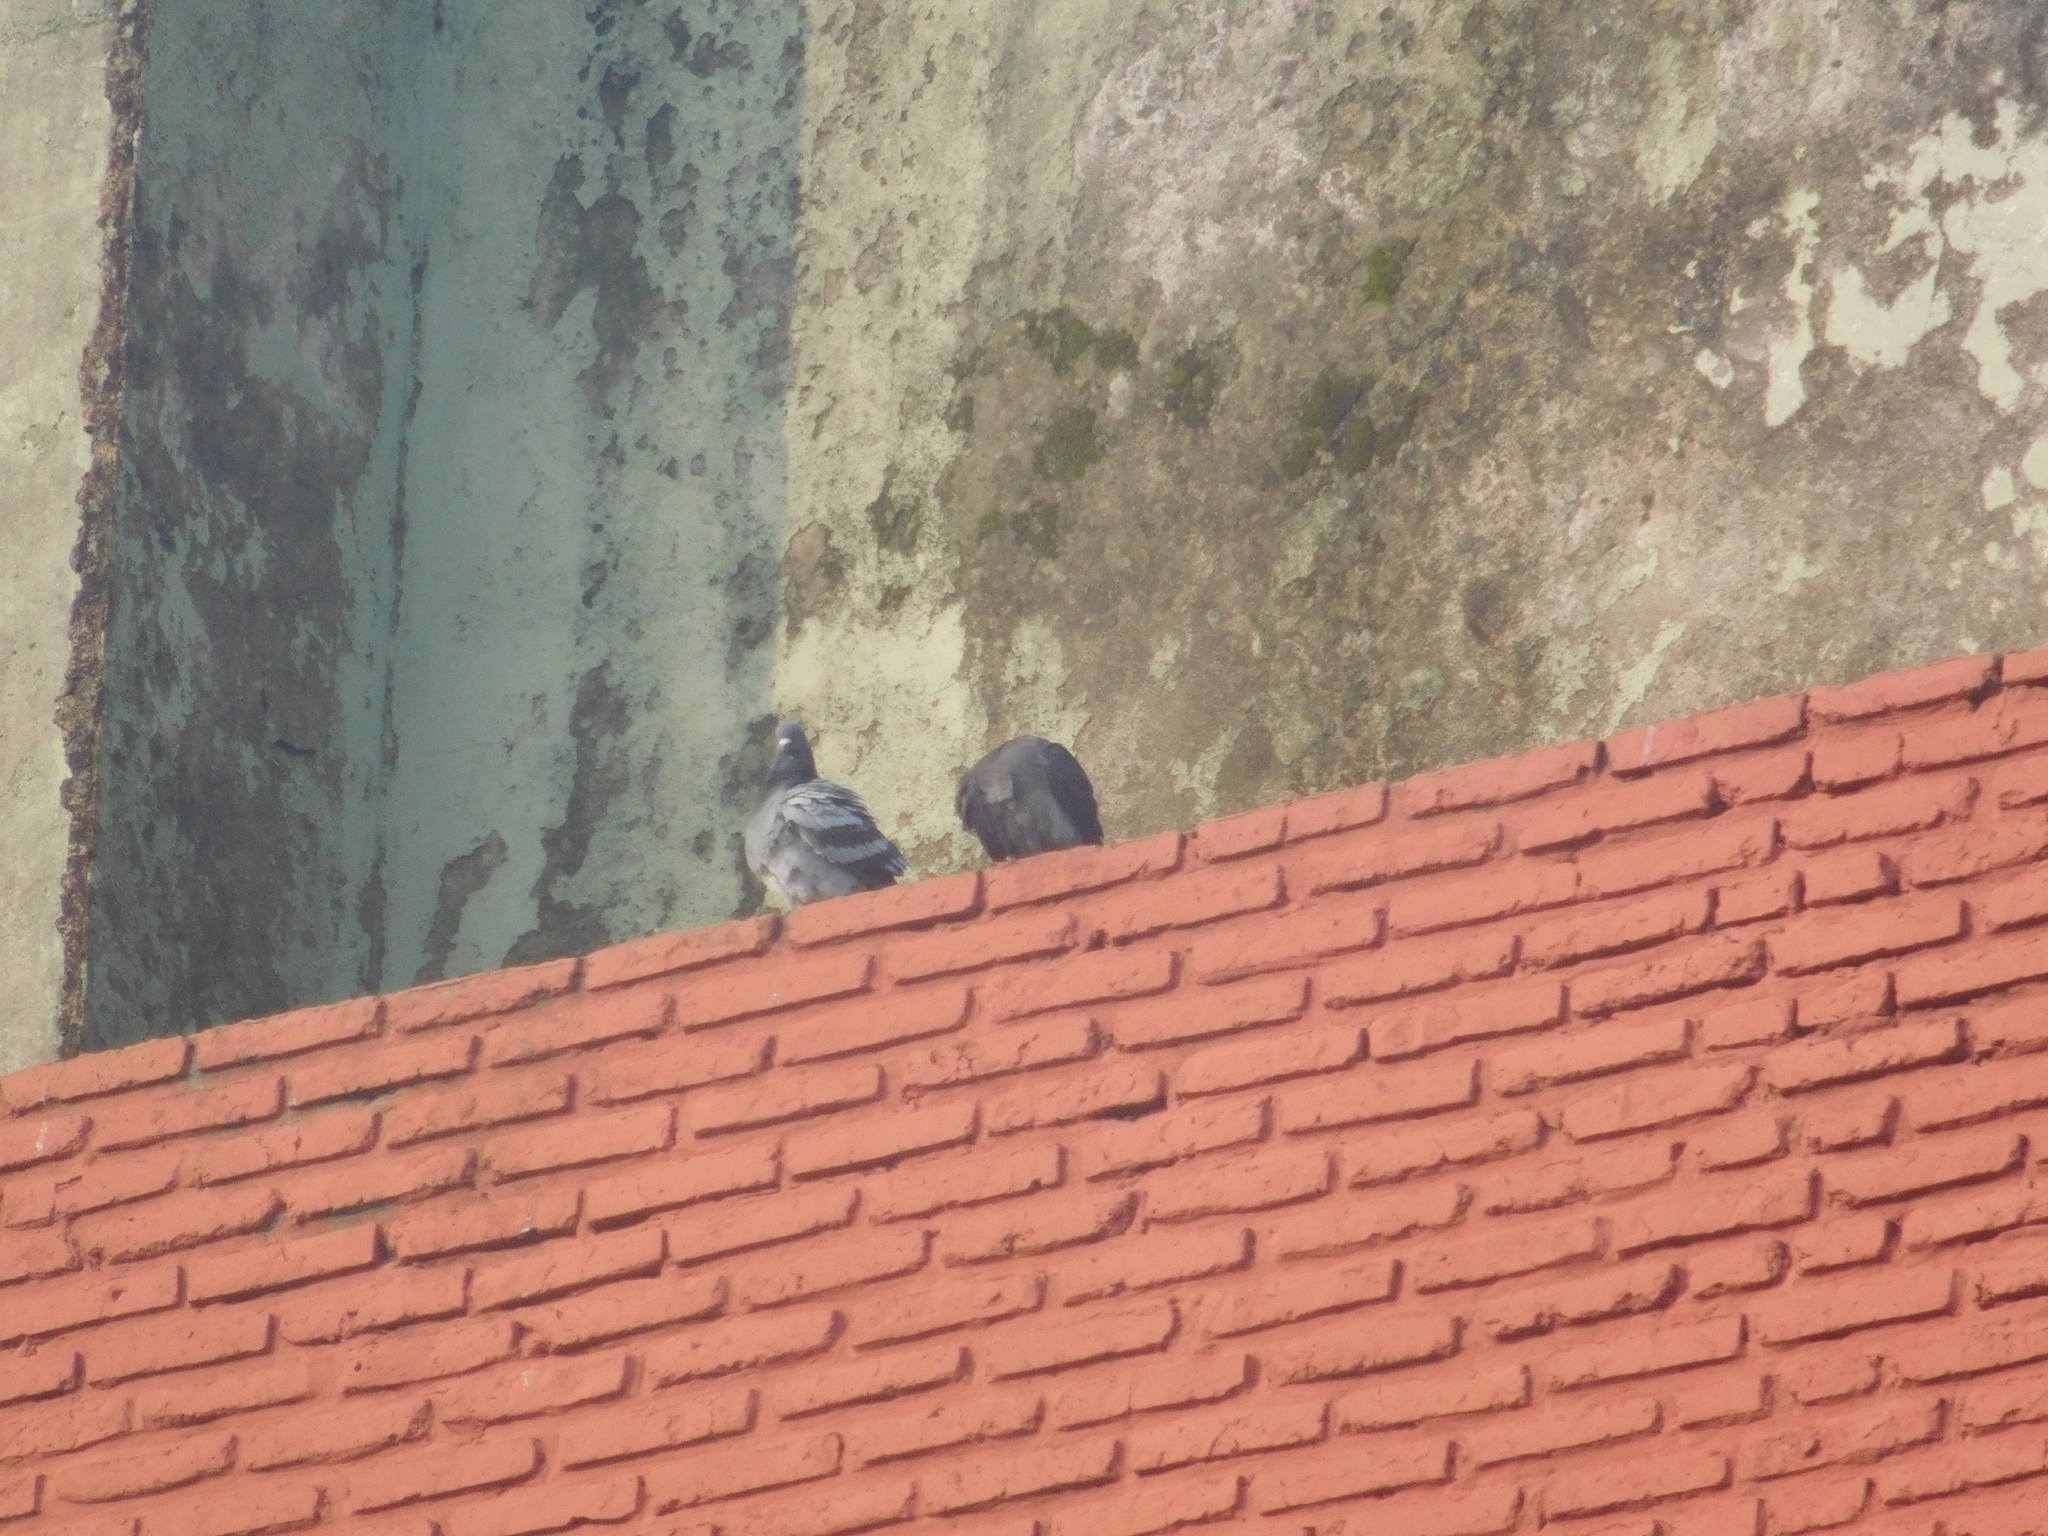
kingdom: Animalia
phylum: Chordata
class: Aves
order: Columbiformes
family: Columbidae
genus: Columba
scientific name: Columba livia
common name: Rock pigeon
